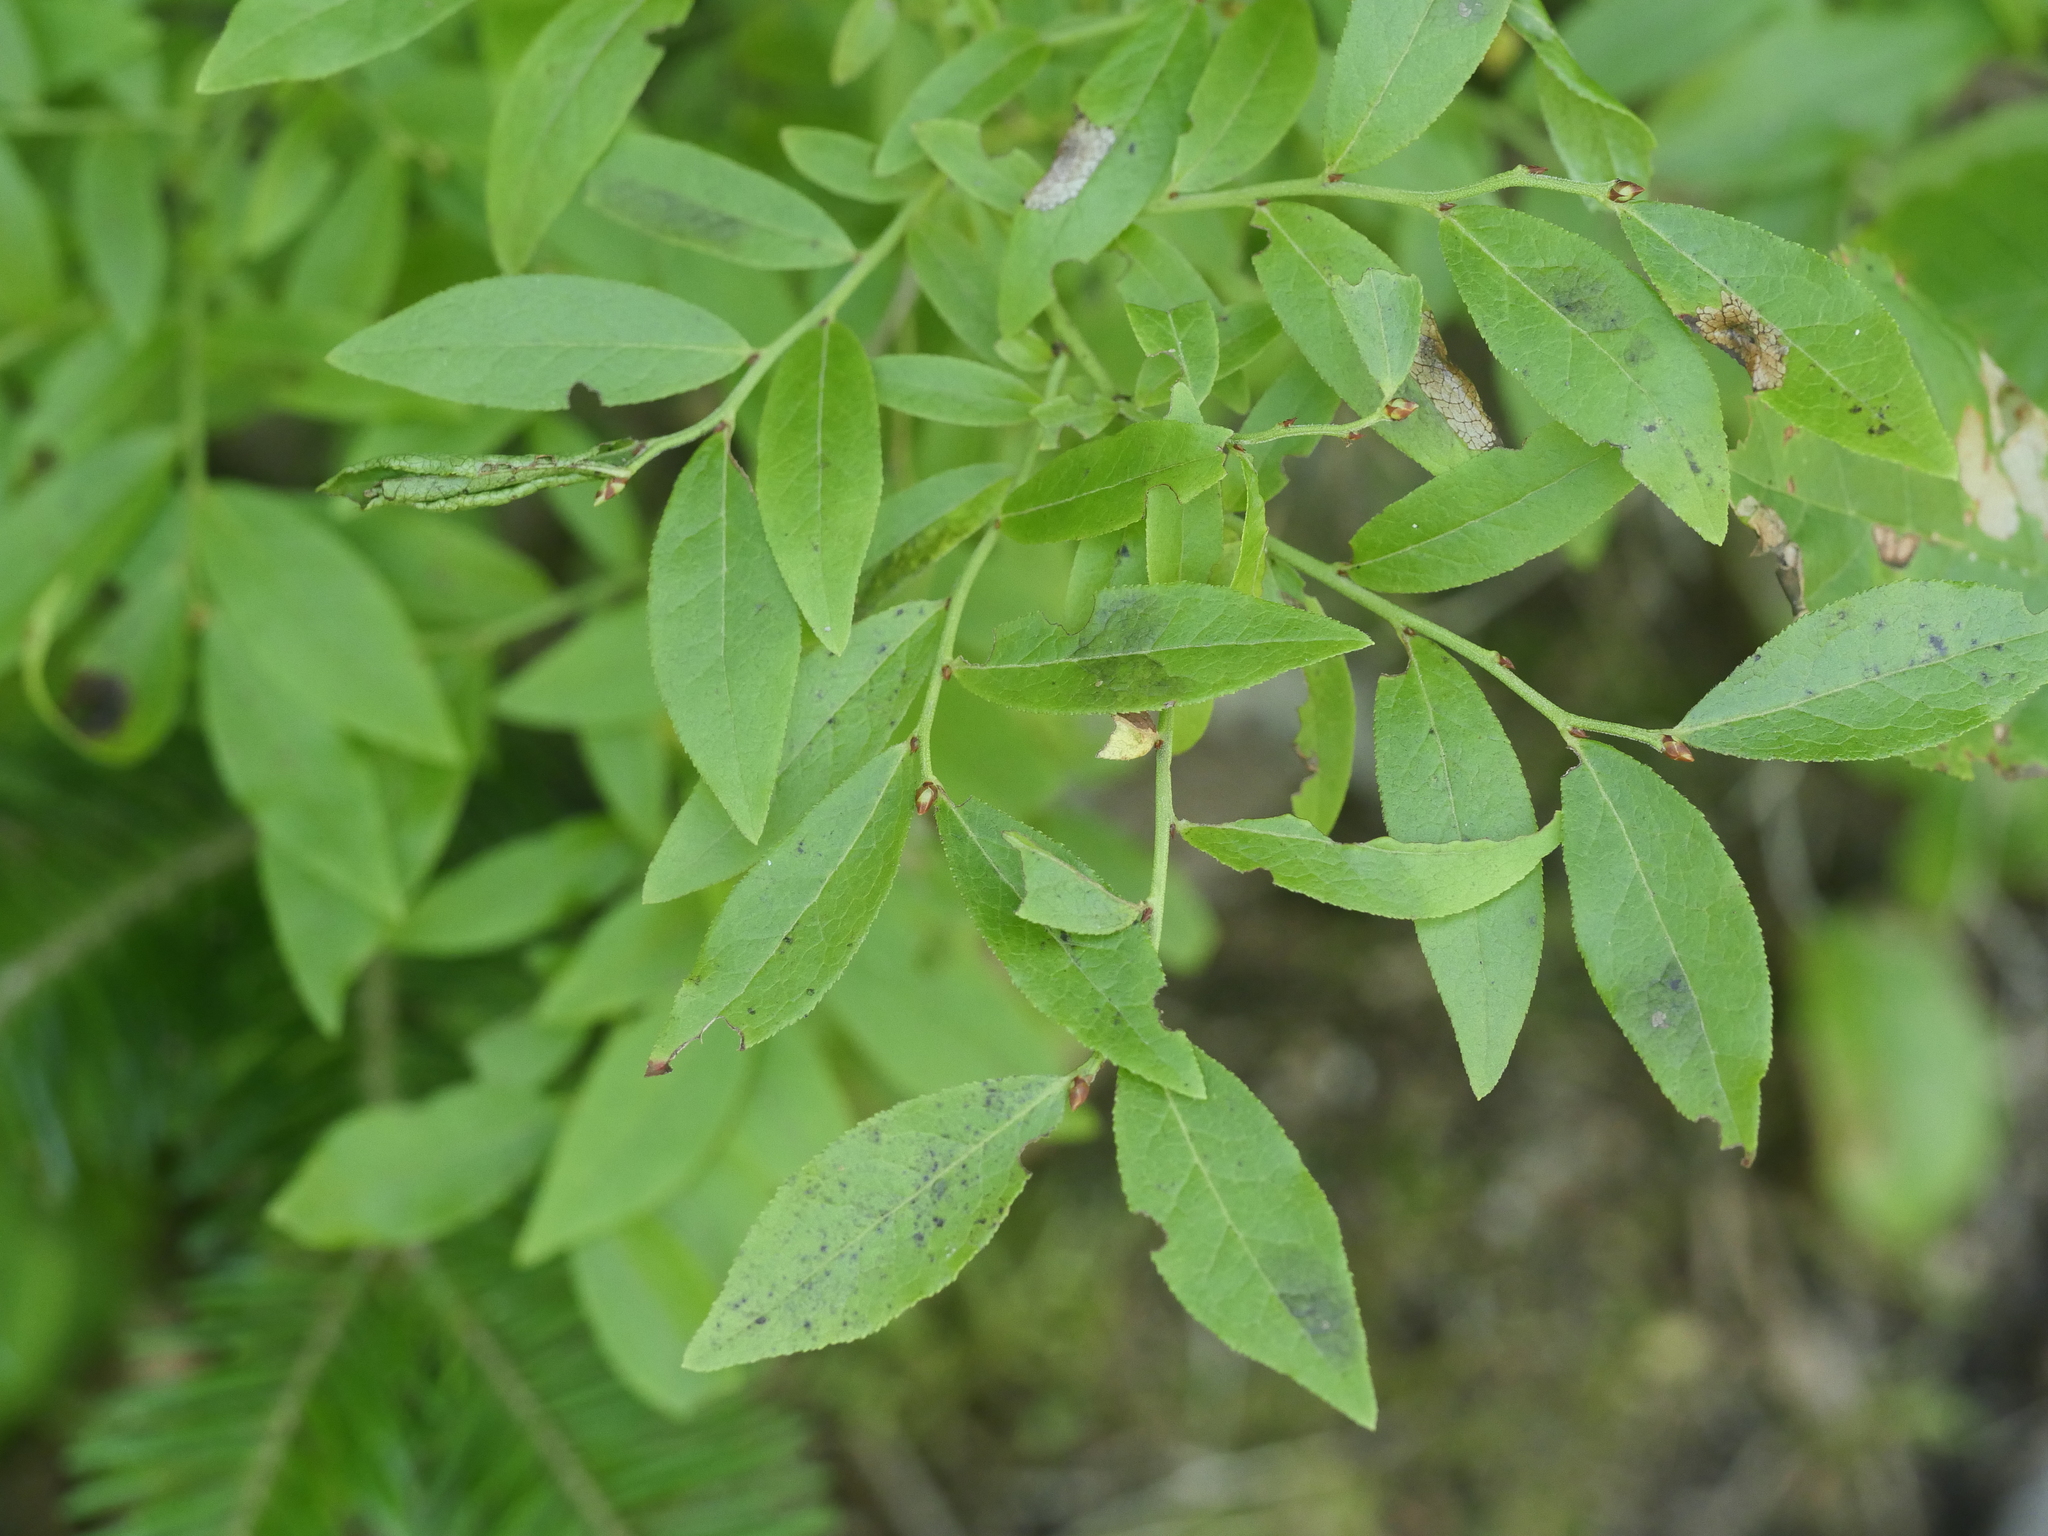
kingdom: Plantae
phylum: Tracheophyta
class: Magnoliopsida
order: Ericales
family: Ericaceae
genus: Vaccinium
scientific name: Vaccinium angustifolium
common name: Early lowbush blueberry
